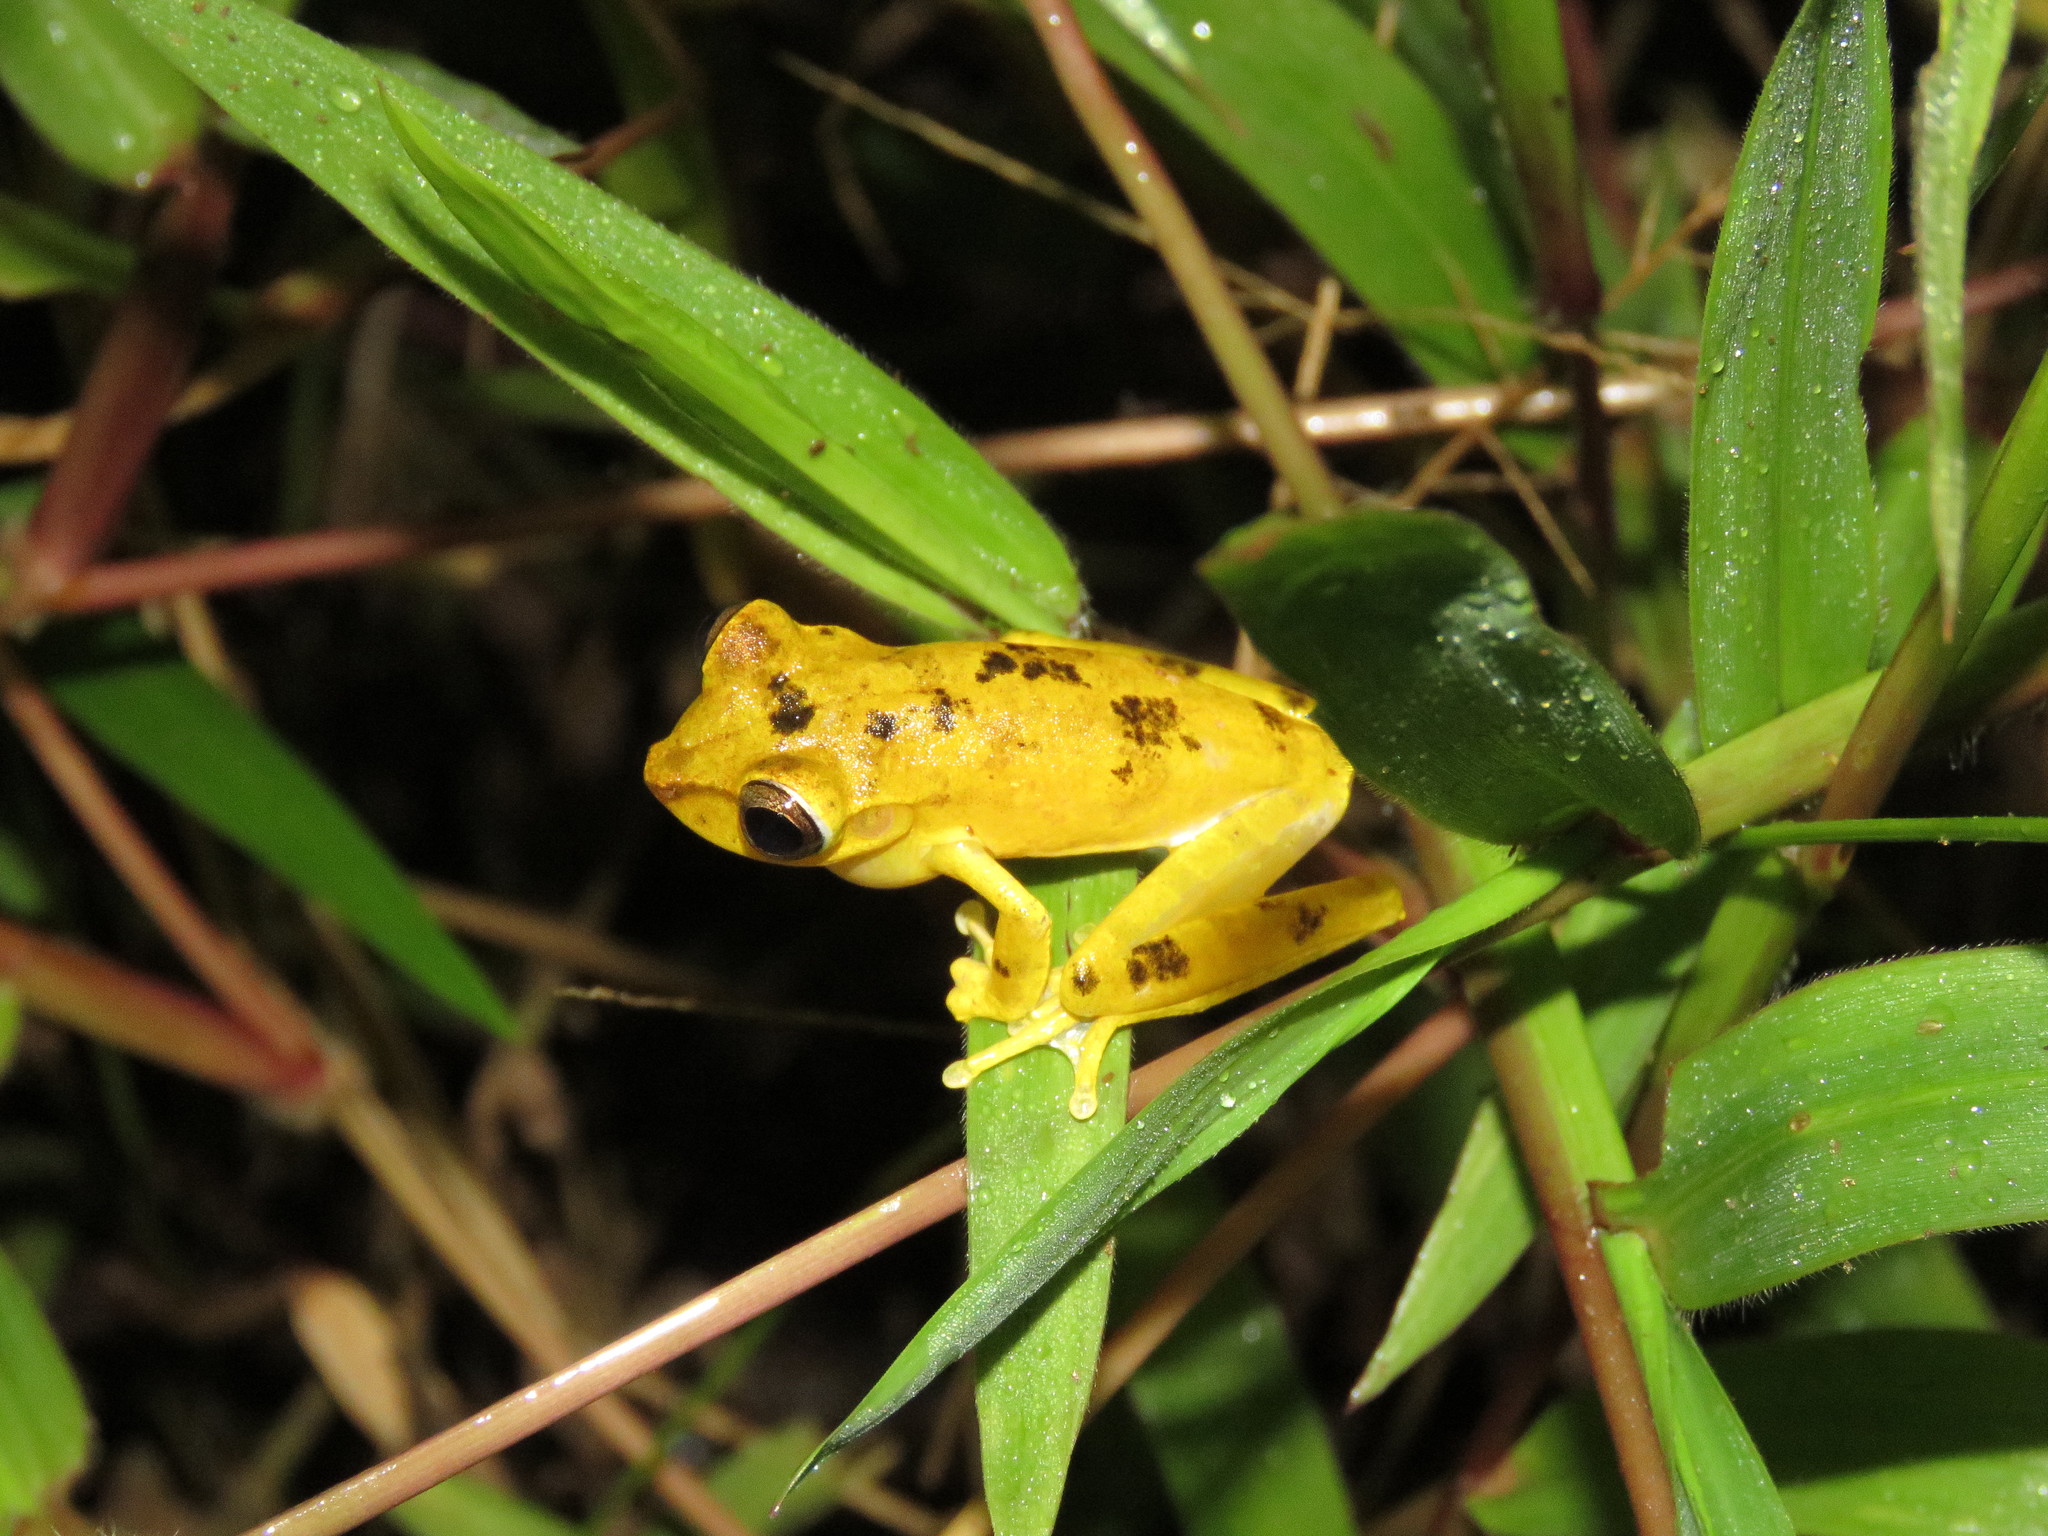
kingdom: Animalia
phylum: Chordata
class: Amphibia
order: Anura
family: Hylidae
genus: Boana
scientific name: Boana steinbachi
